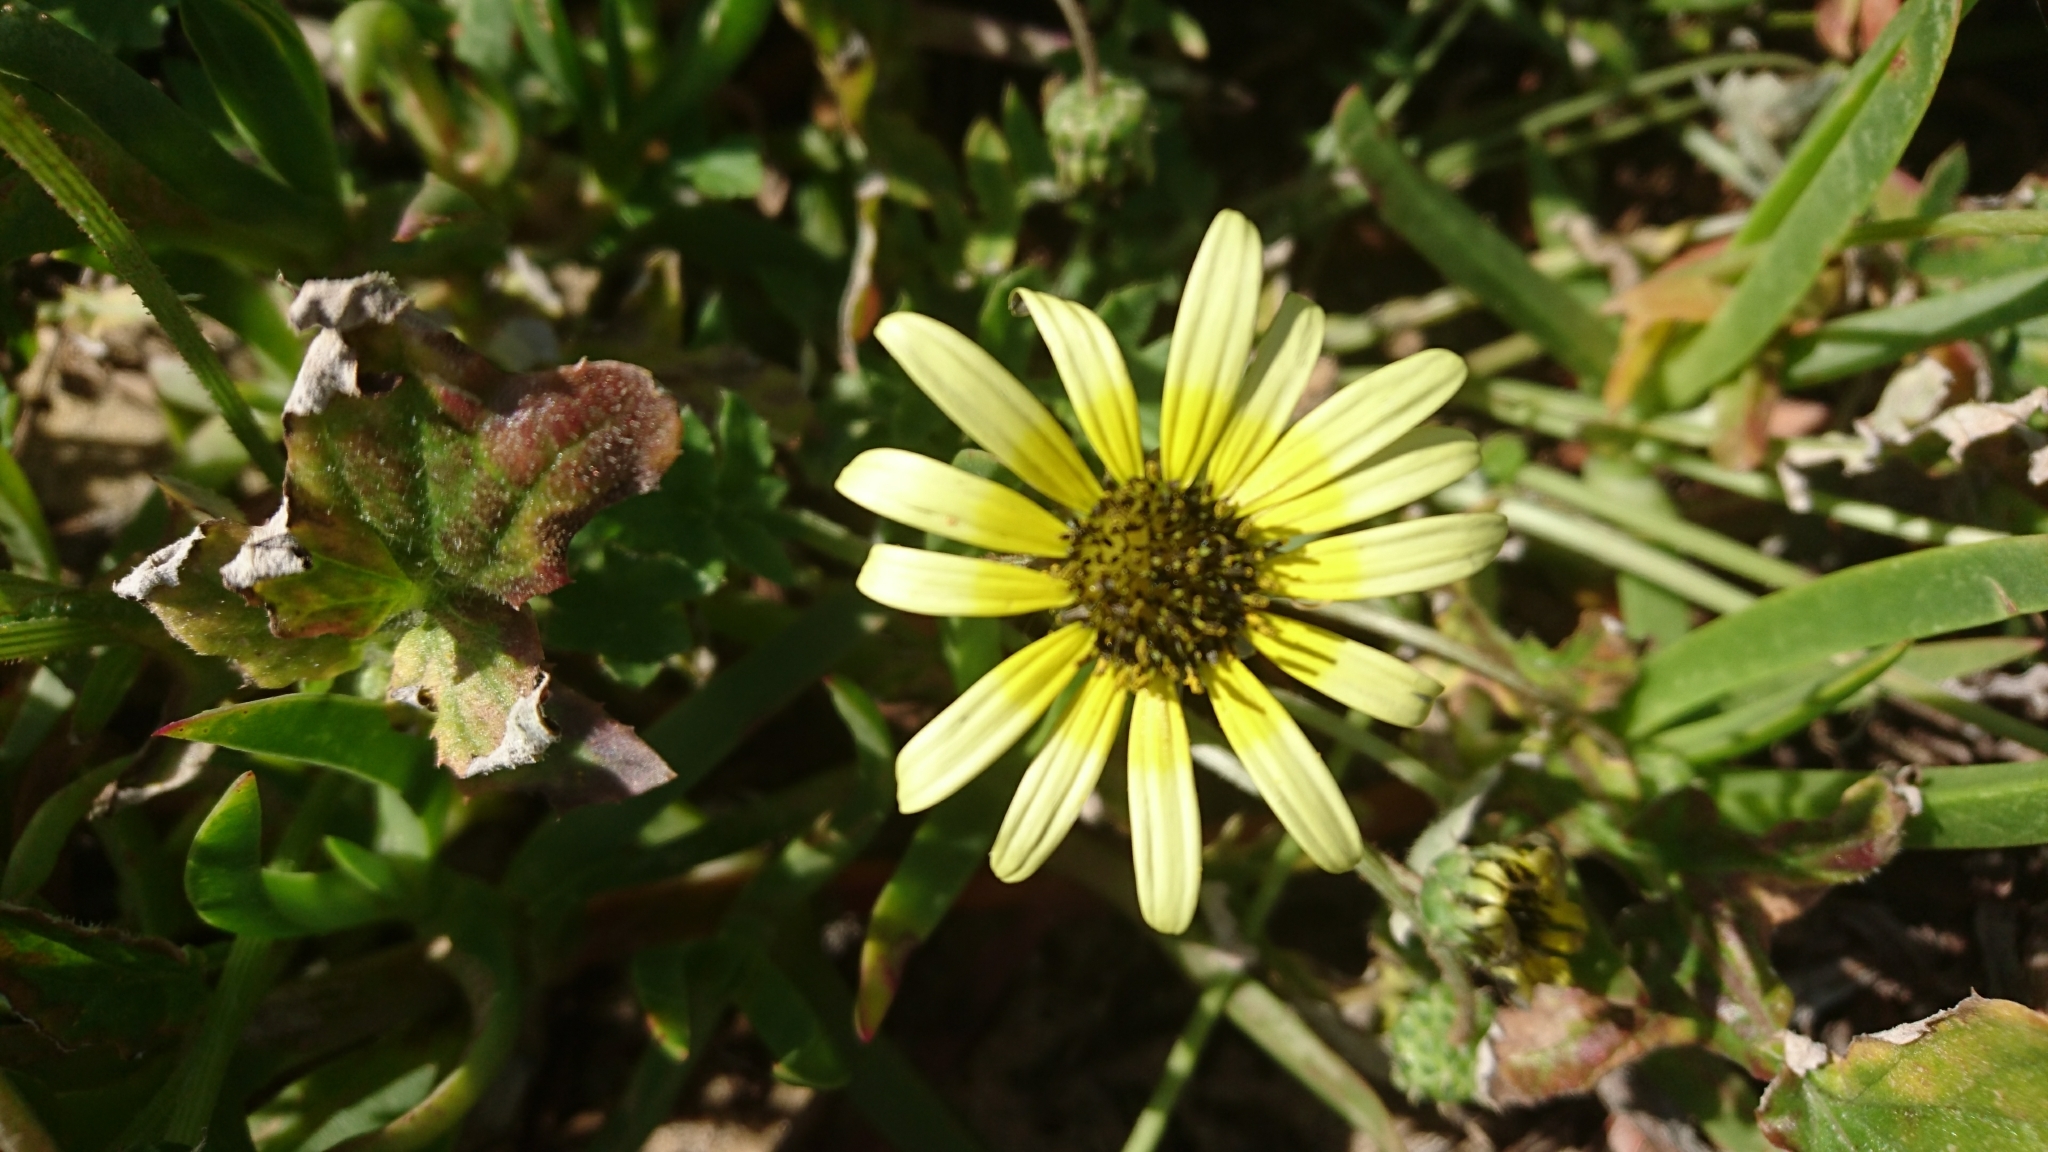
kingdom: Plantae
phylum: Tracheophyta
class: Magnoliopsida
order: Asterales
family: Asteraceae
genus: Arctotheca
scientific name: Arctotheca calendula
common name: Capeweed
